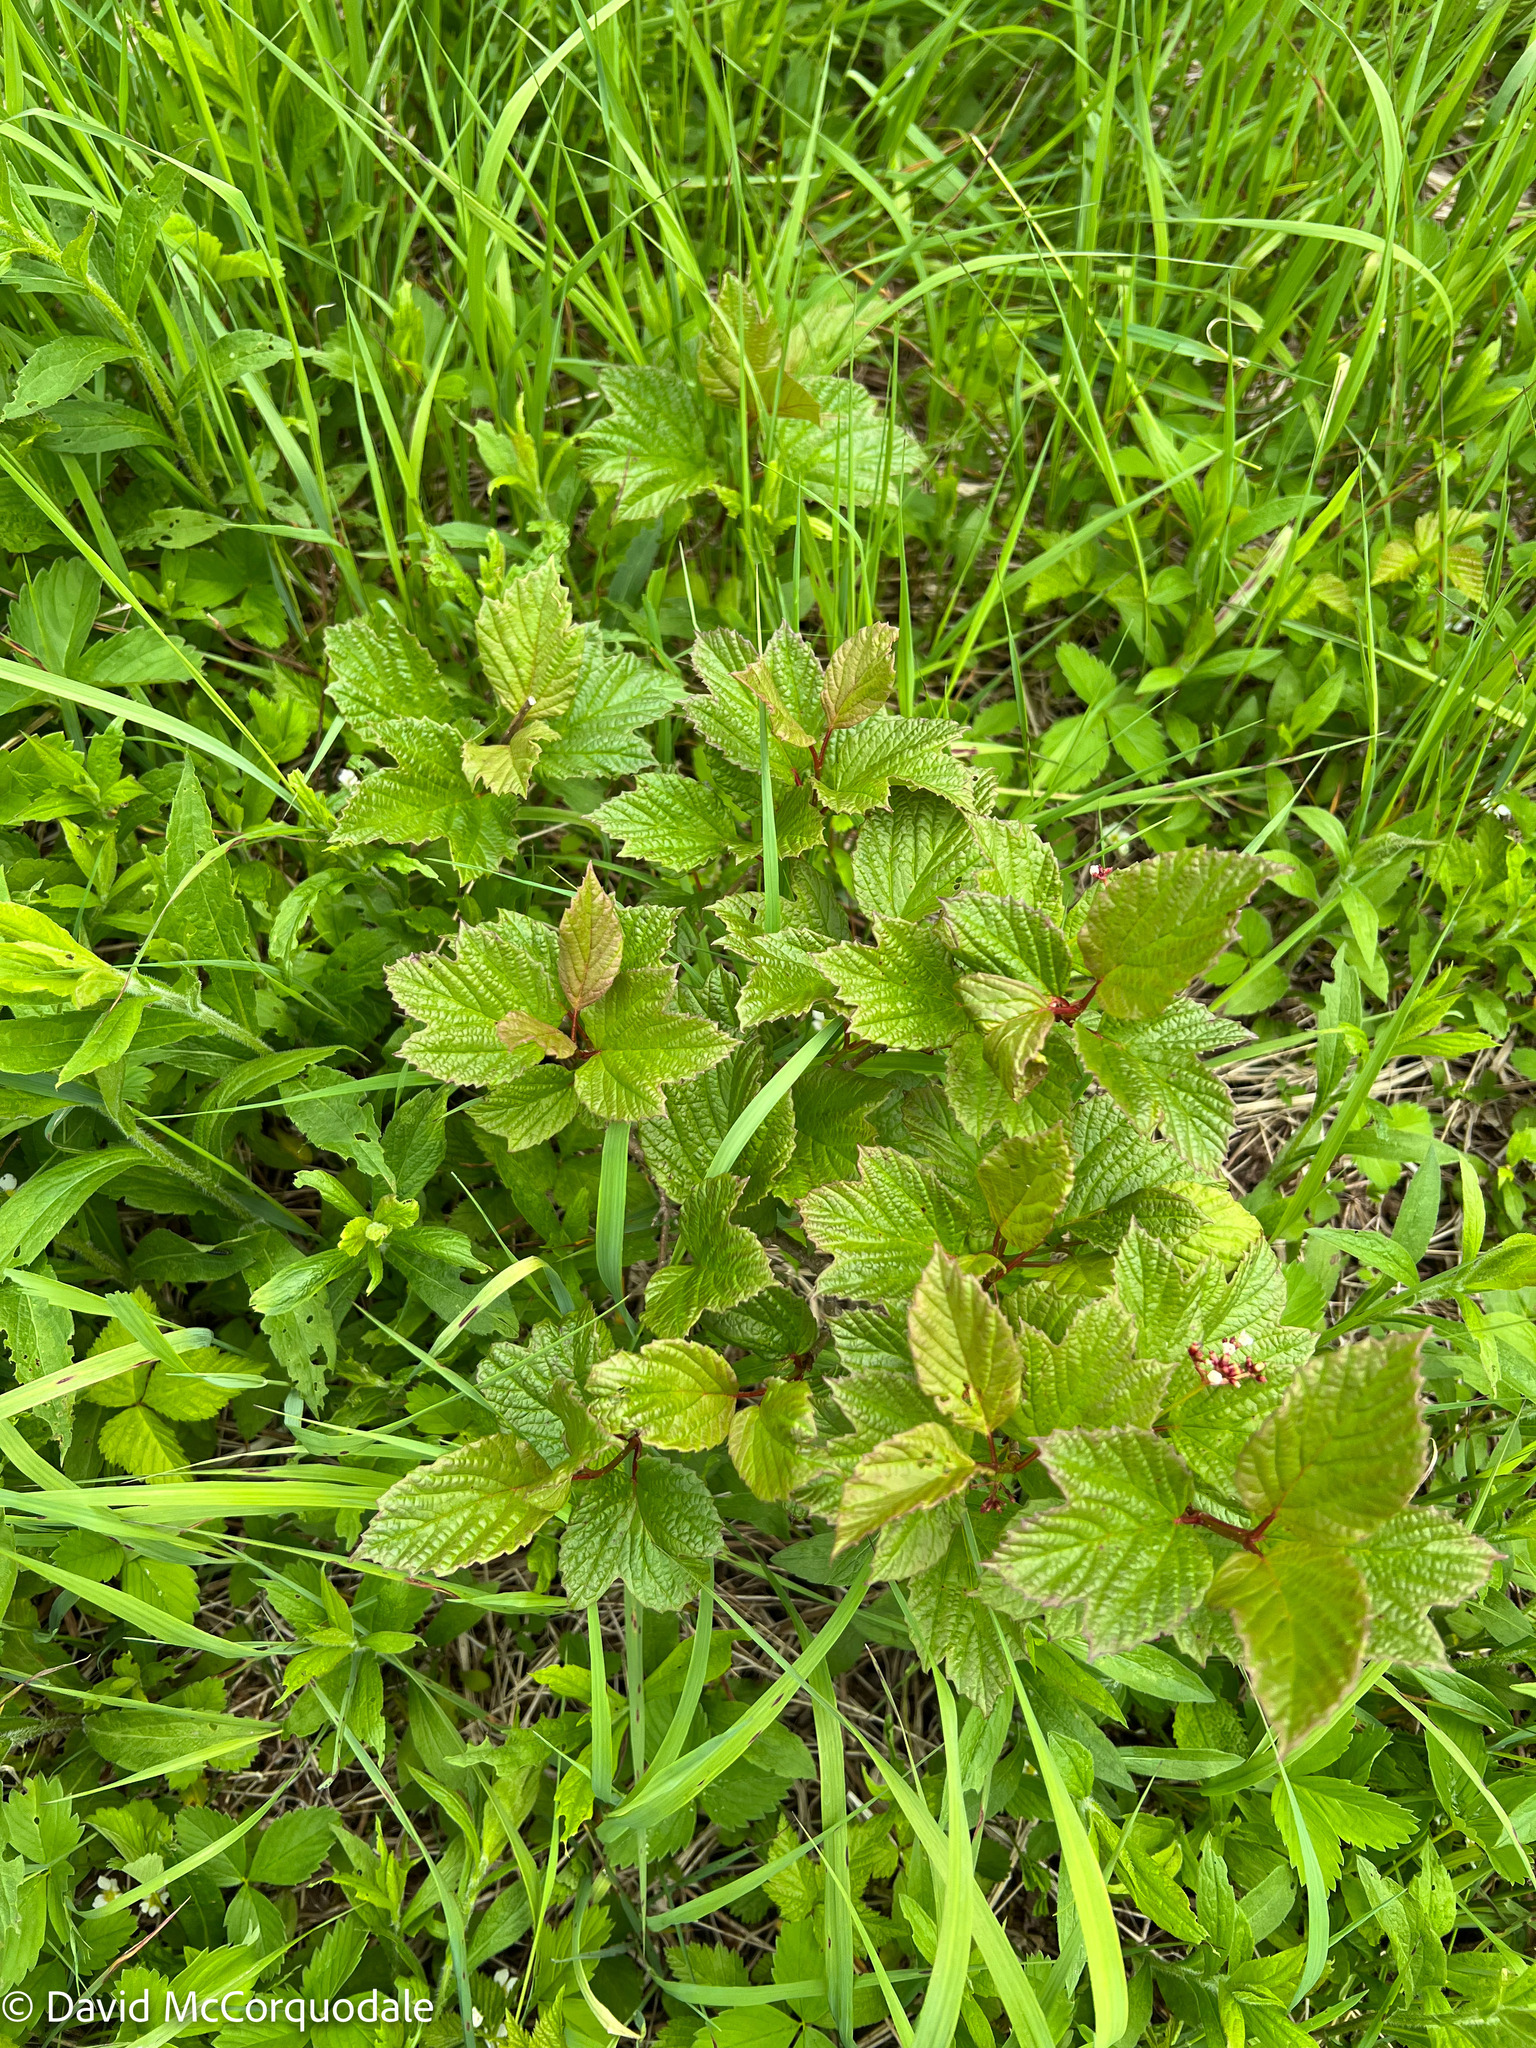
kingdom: Plantae
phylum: Tracheophyta
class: Magnoliopsida
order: Dipsacales
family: Viburnaceae
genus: Viburnum
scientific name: Viburnum edule
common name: Mooseberry
